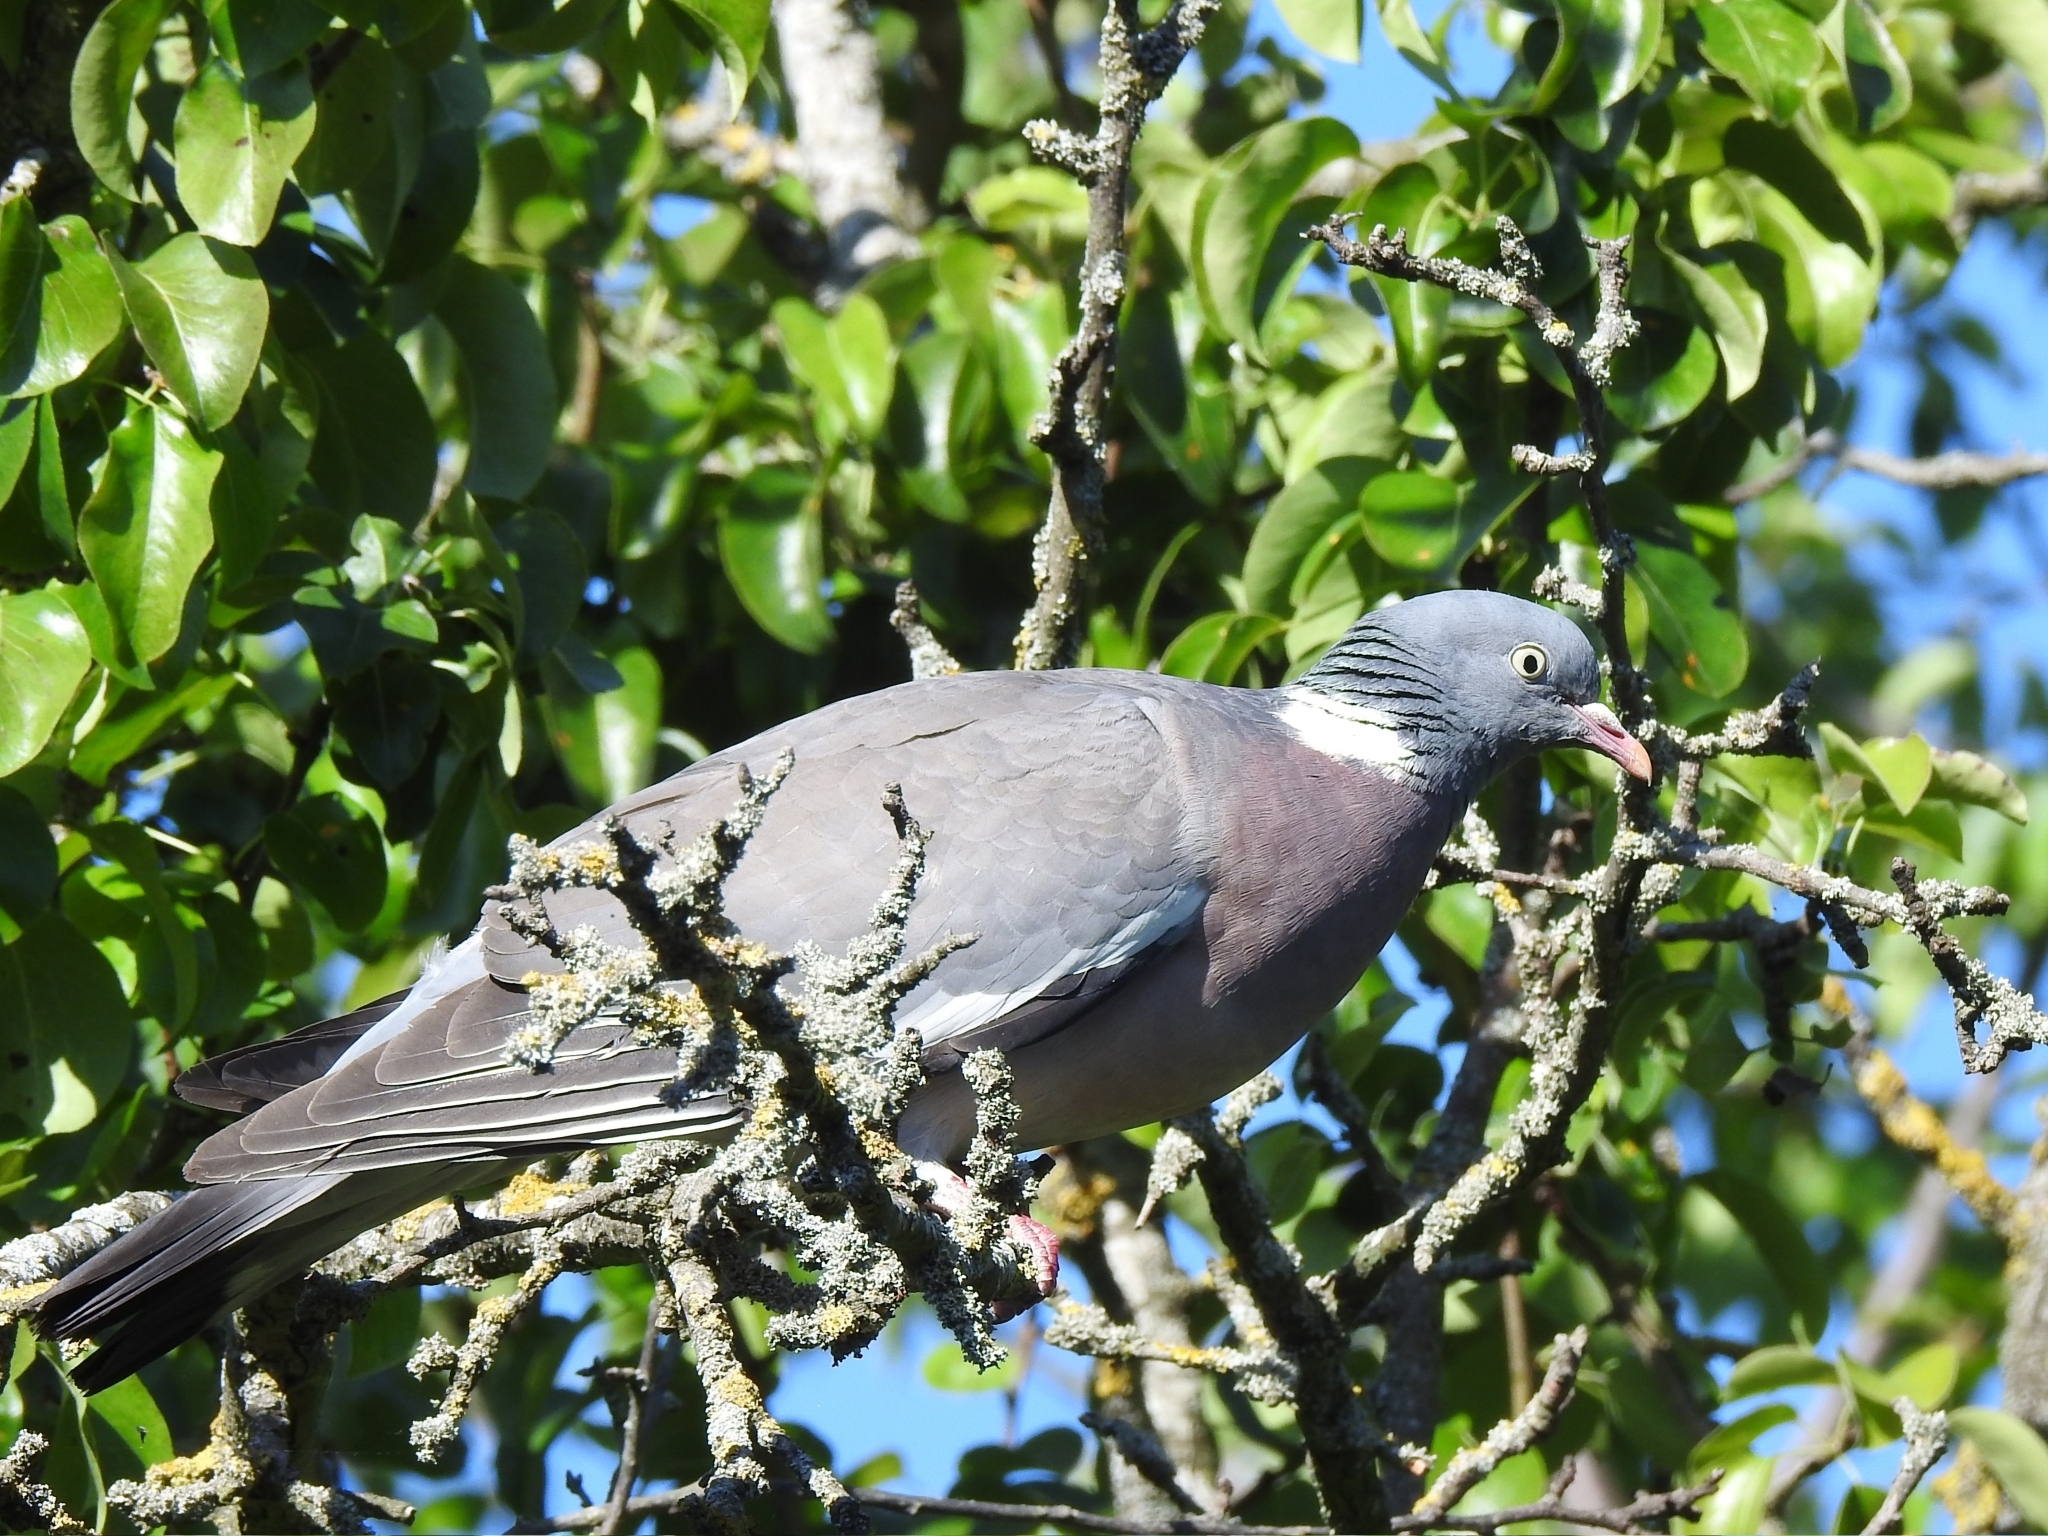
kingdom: Animalia
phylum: Chordata
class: Aves
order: Columbiformes
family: Columbidae
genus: Columba
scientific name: Columba palumbus
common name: Common wood pigeon
